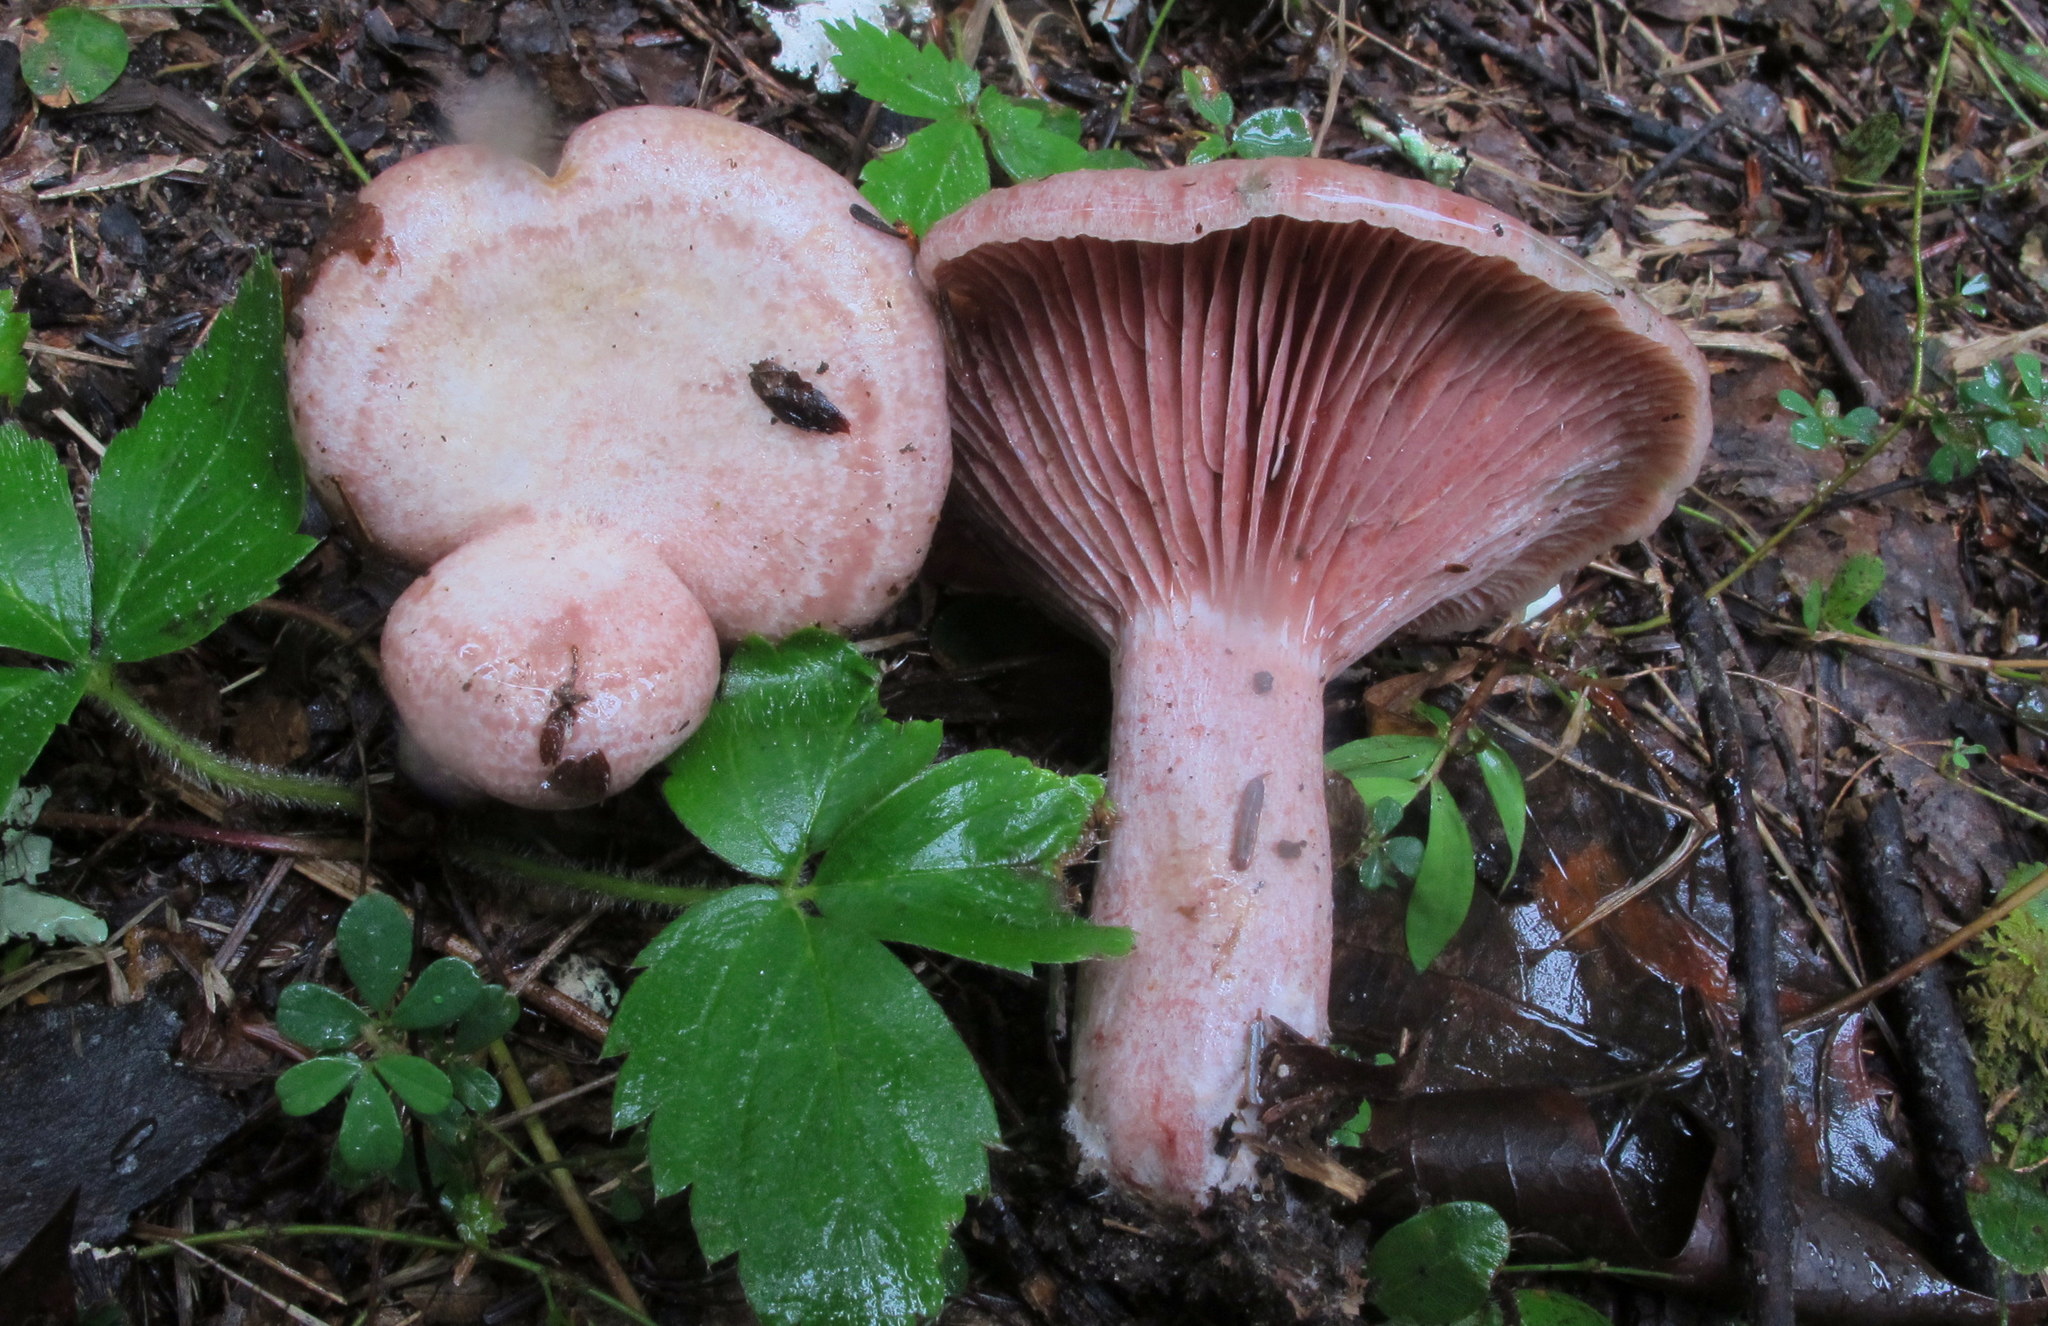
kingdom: Fungi
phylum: Basidiomycota
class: Agaricomycetes
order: Russulales
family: Russulaceae
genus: Lactarius
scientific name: Lactarius subpurpureus
